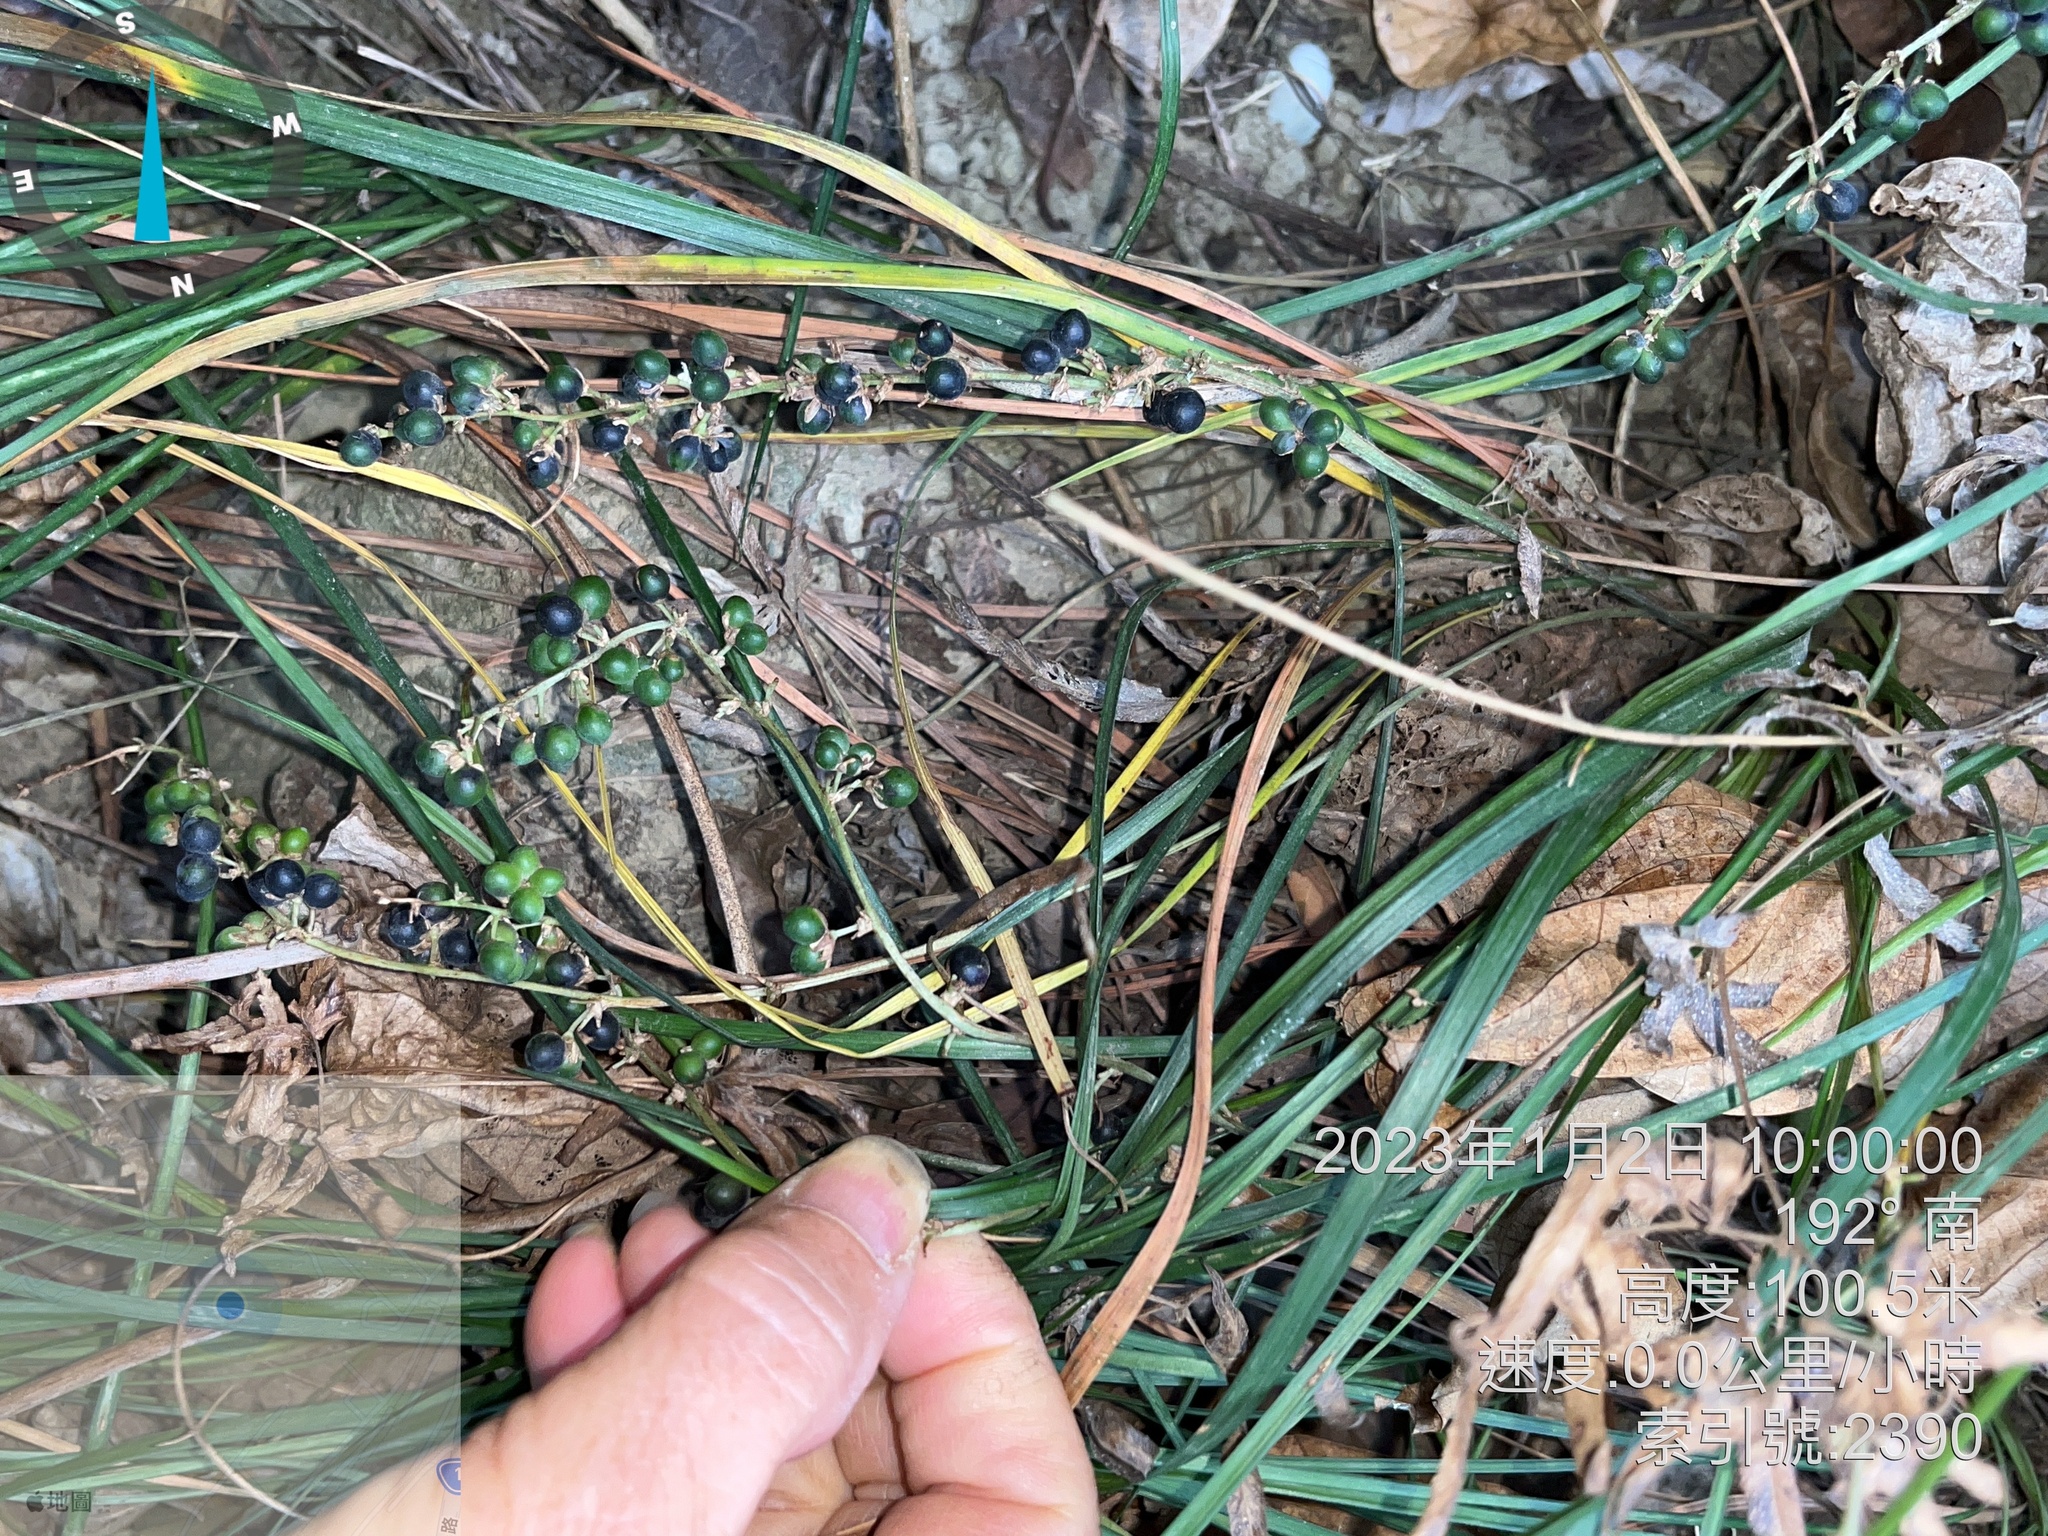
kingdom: Plantae
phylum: Tracheophyta
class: Liliopsida
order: Asparagales
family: Asparagaceae
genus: Ophiopogon
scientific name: Ophiopogon reversus
